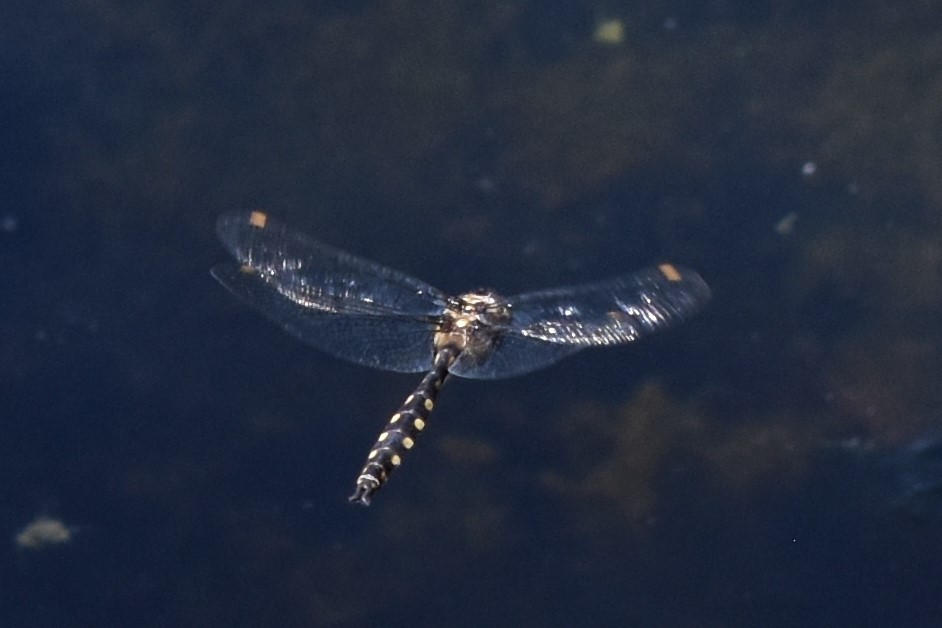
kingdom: Animalia
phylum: Arthropoda
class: Insecta
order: Odonata
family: Corduliidae
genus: Procordulia
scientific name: Procordulia grayi
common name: Yellow spotted dragonfly
